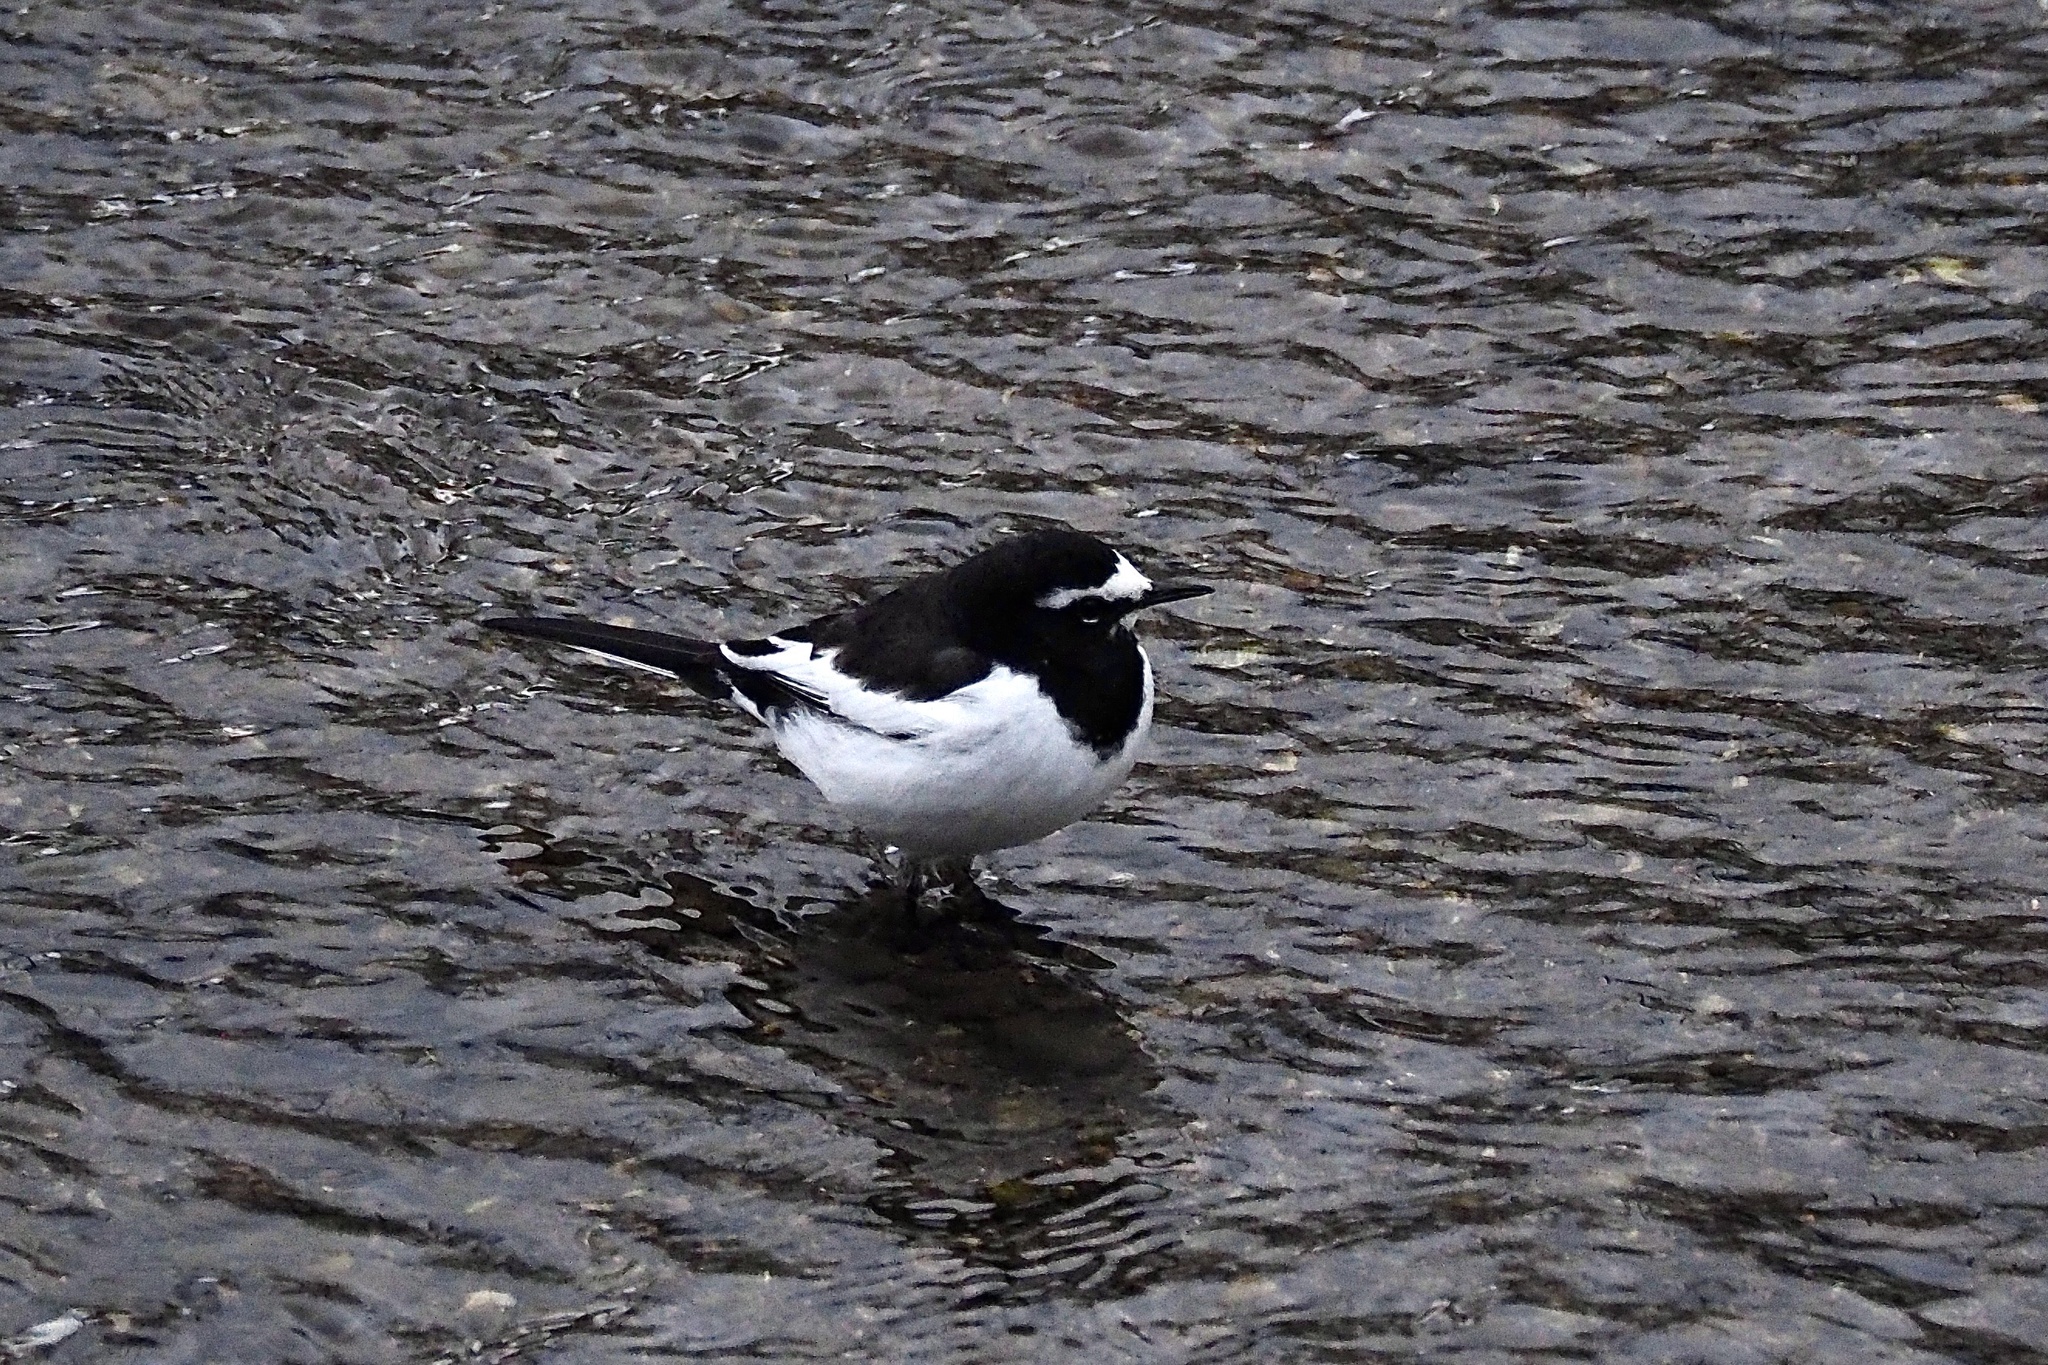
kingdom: Animalia
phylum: Chordata
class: Aves
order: Passeriformes
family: Motacillidae
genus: Motacilla
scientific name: Motacilla grandis
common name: Japanese wagtail
